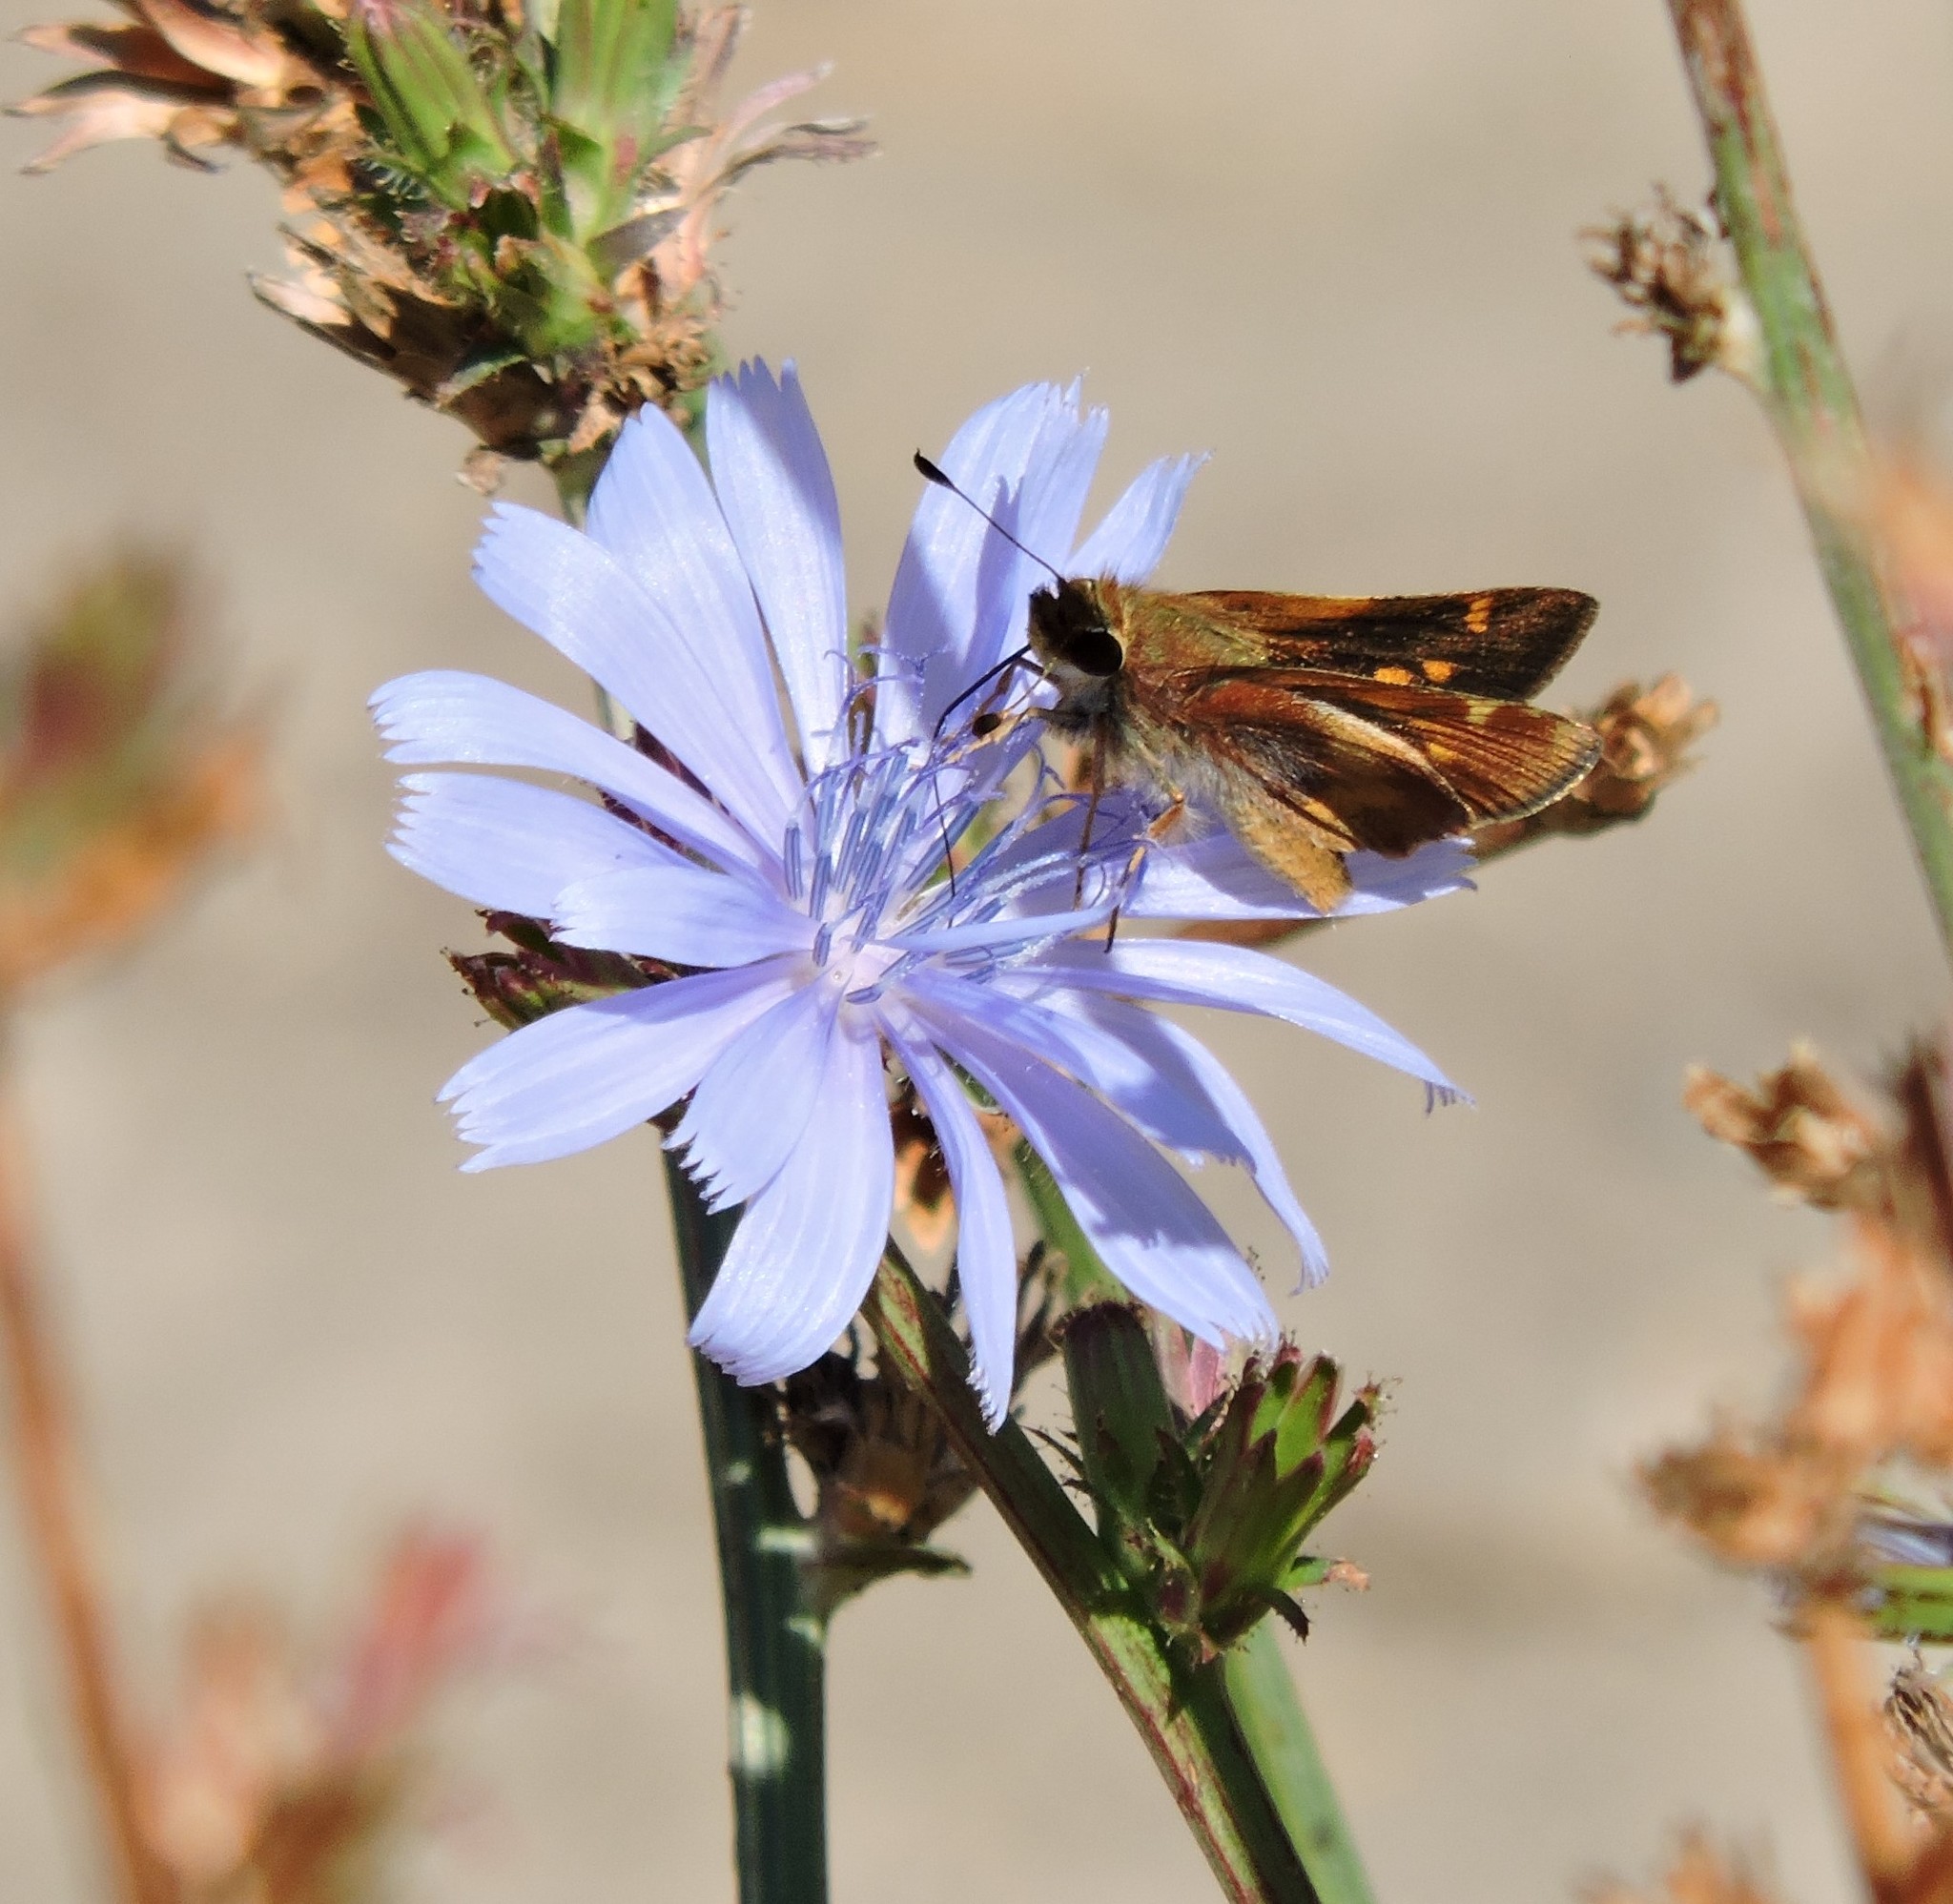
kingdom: Animalia
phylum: Arthropoda
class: Insecta
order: Lepidoptera
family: Hesperiidae
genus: Lon
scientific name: Lon melane
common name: Umber skipper
